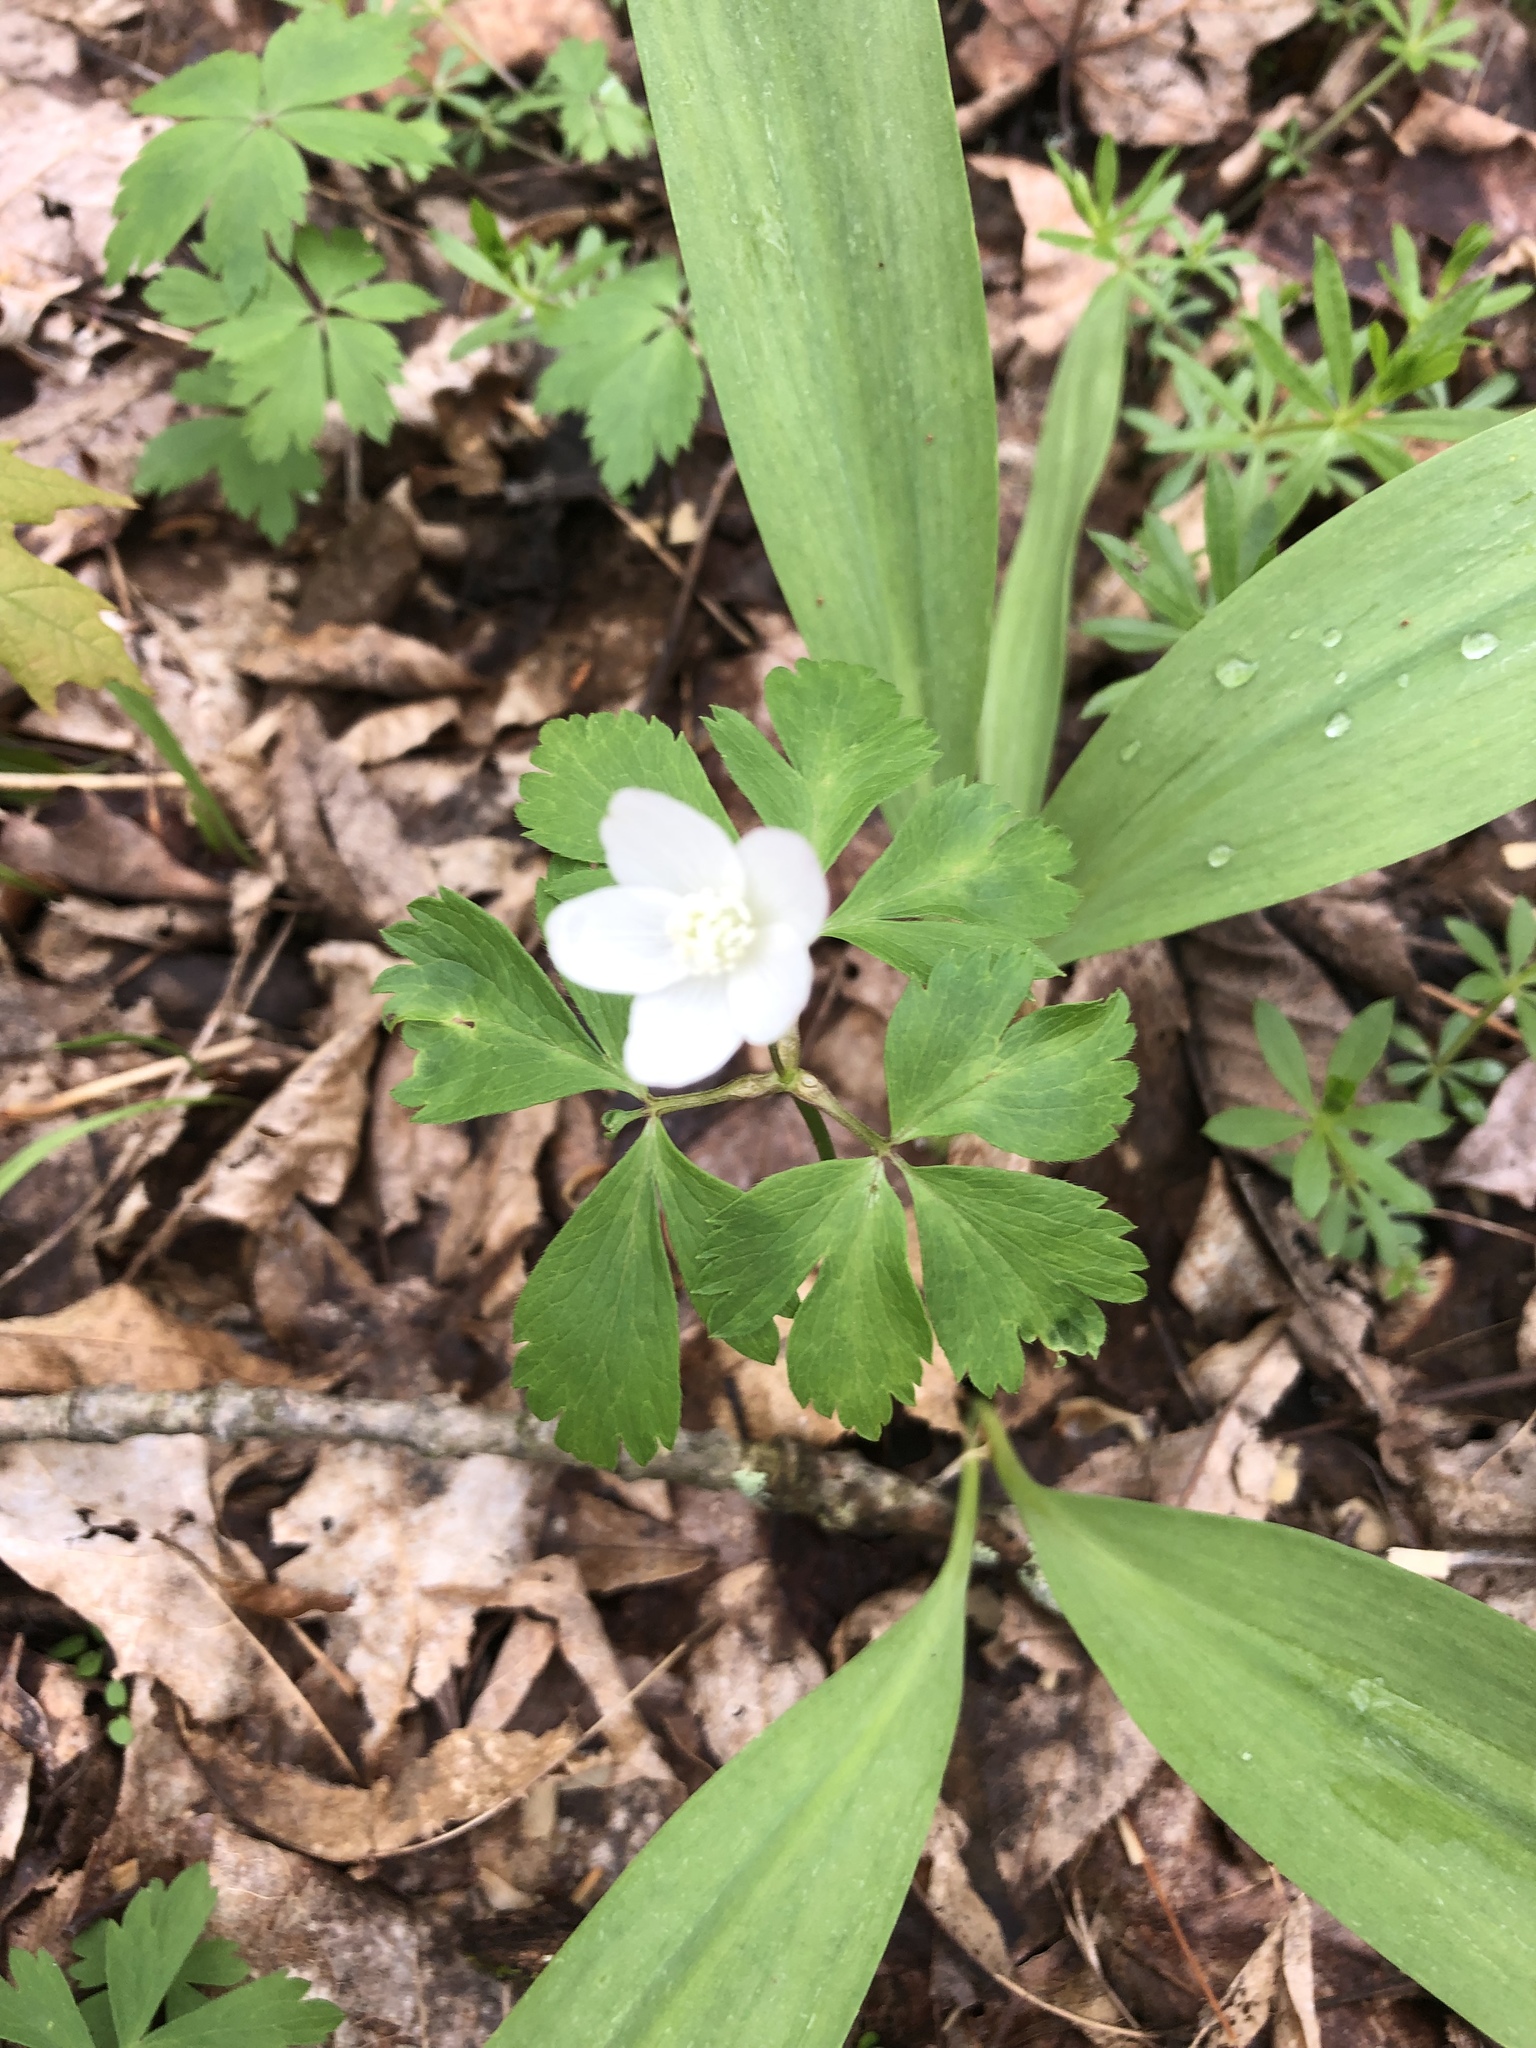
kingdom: Plantae
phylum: Tracheophyta
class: Magnoliopsida
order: Ranunculales
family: Ranunculaceae
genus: Anemone
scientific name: Anemone quinquefolia
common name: Wood anemone
